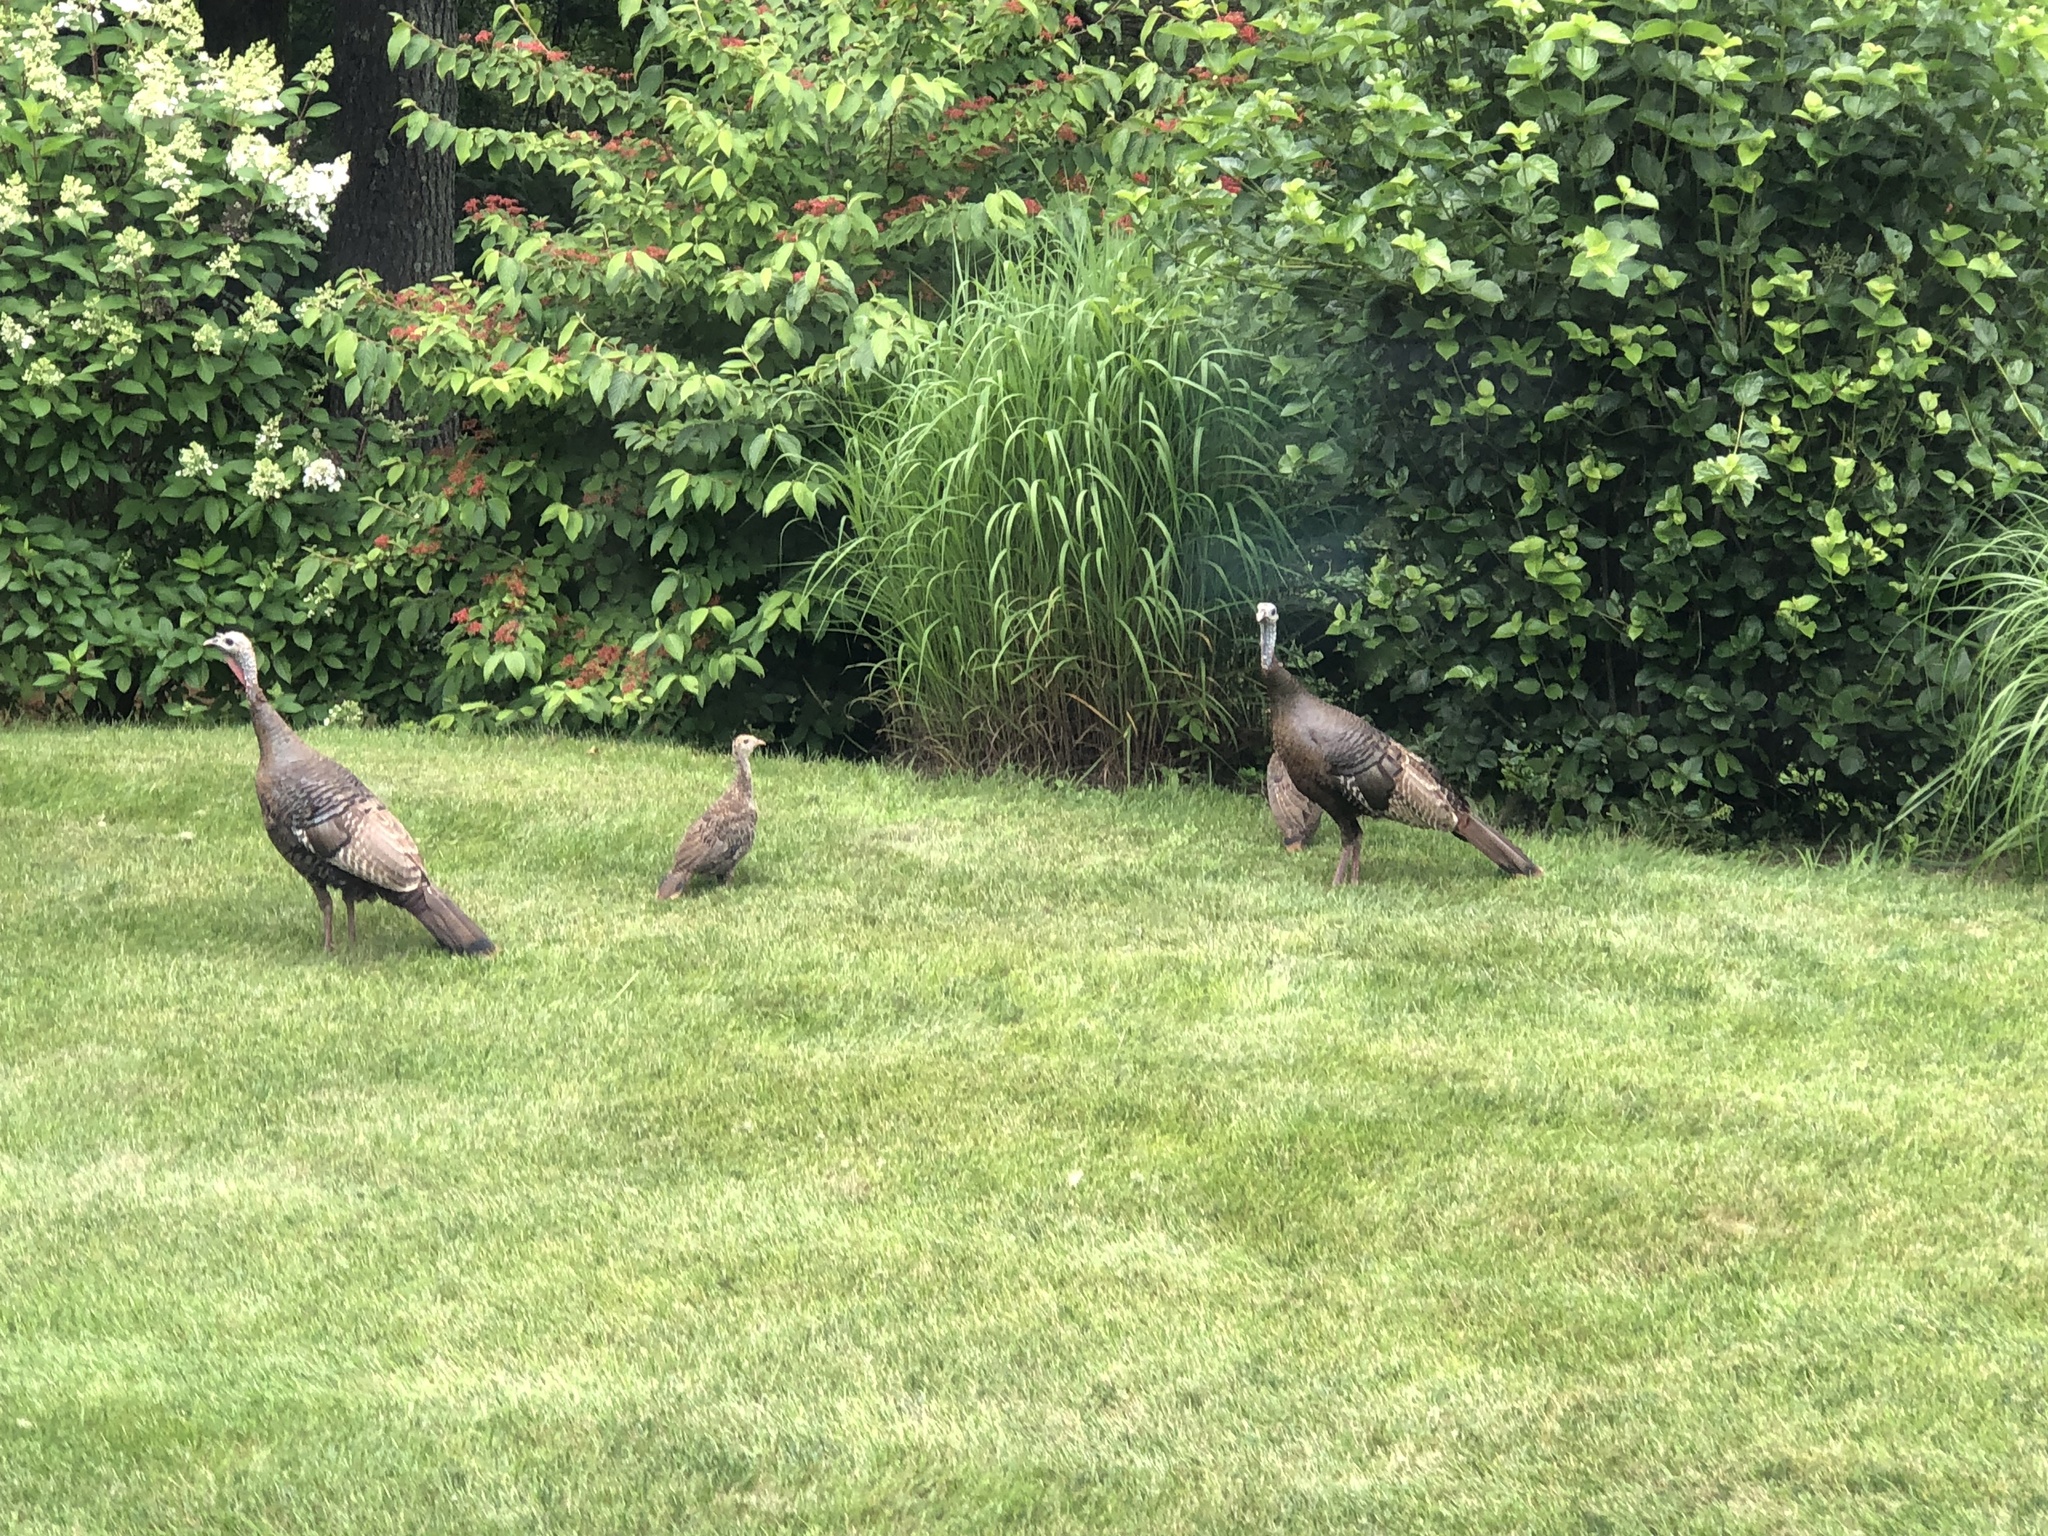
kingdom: Animalia
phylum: Chordata
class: Aves
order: Galliformes
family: Phasianidae
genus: Meleagris
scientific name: Meleagris gallopavo
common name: Wild turkey
